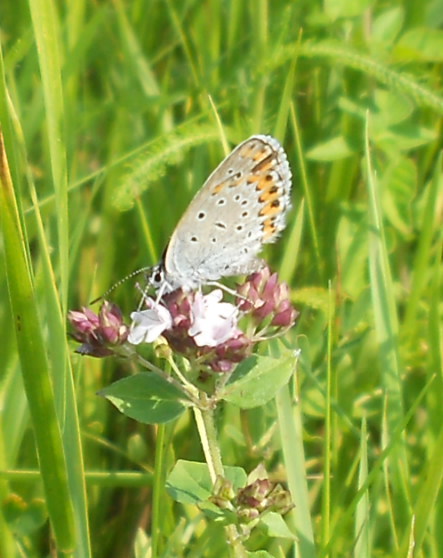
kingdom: Animalia
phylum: Arthropoda
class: Insecta
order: Lepidoptera
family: Lycaenidae
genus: Plebejus
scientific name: Plebejus argyrognomon
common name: Reverdin's blue
